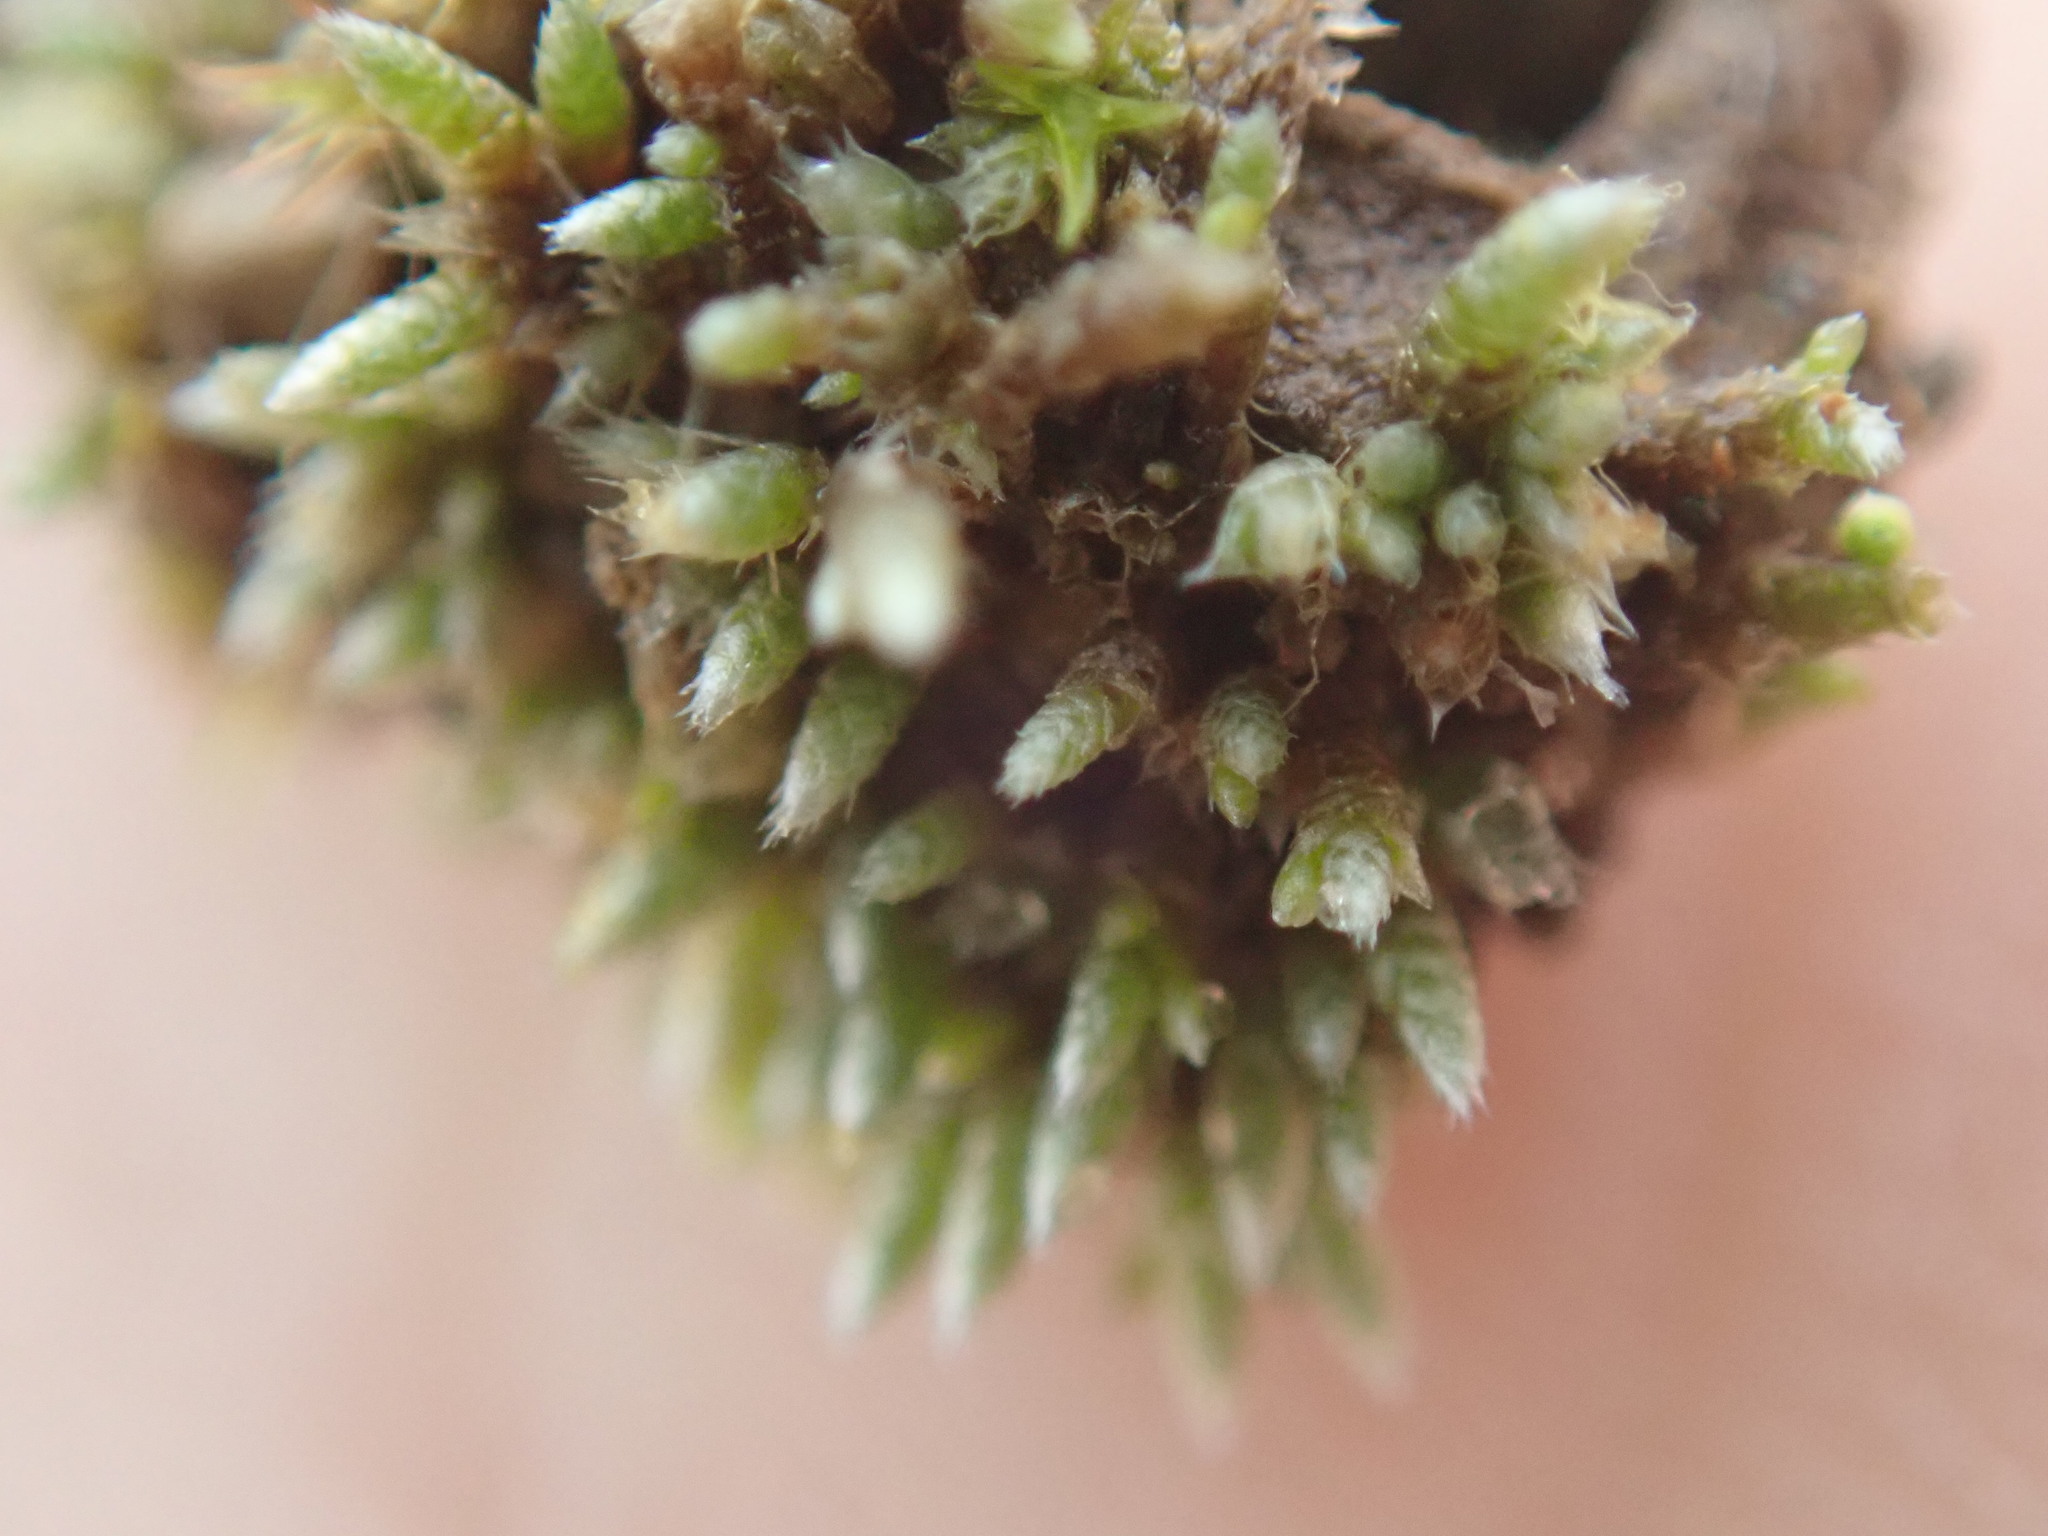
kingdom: Plantae
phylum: Bryophyta
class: Bryopsida
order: Bryales
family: Bryaceae
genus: Bryum
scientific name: Bryum argenteum
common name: Silver-moss
